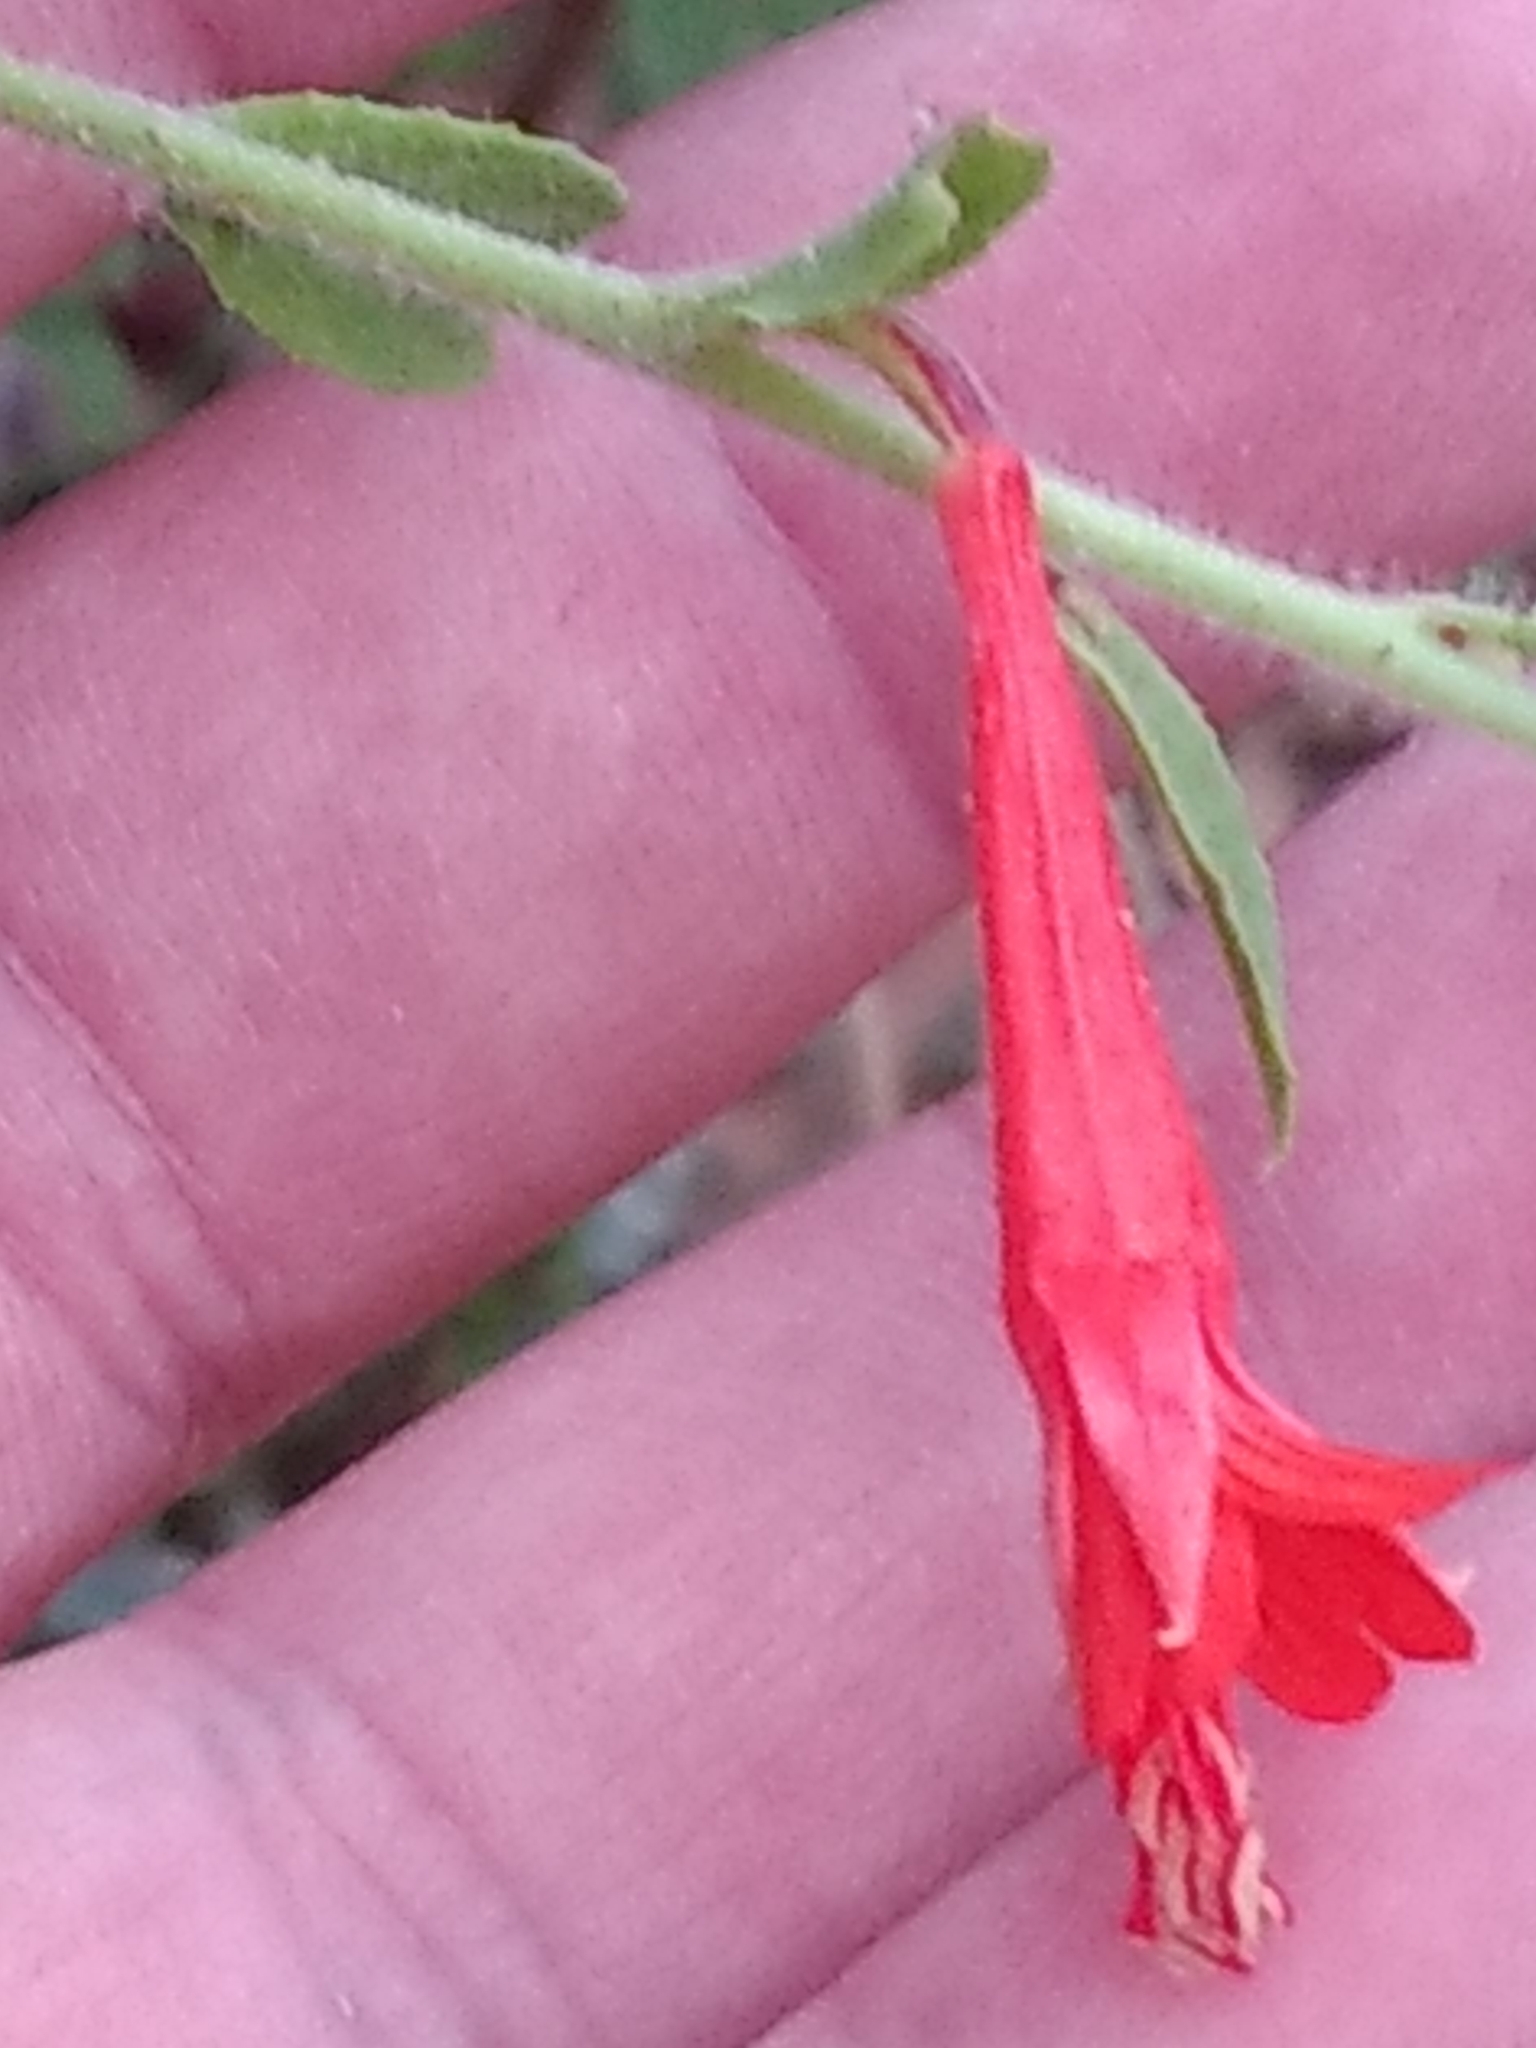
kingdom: Plantae
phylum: Tracheophyta
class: Magnoliopsida
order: Myrtales
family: Onagraceae
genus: Epilobium
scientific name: Epilobium canum
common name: California-fuchsia
